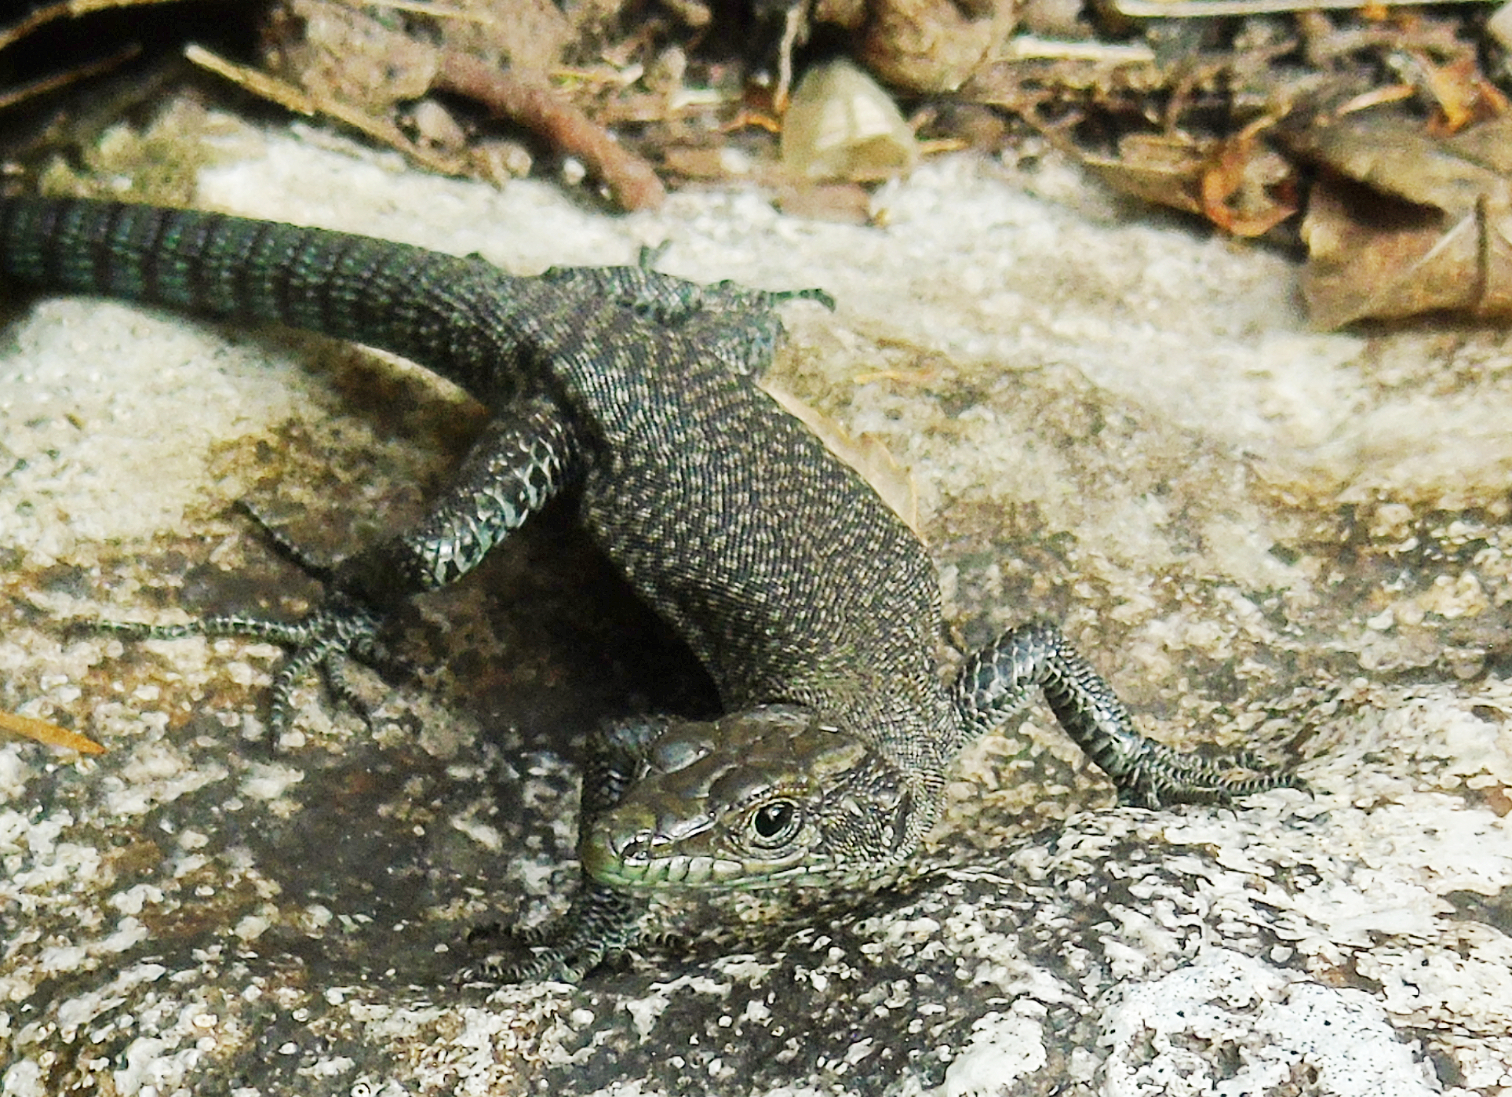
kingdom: Animalia
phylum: Chordata
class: Squamata
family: Lacertidae
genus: Dalmatolacerta
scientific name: Dalmatolacerta oxycephala
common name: Sharp-snouted rock lizard
